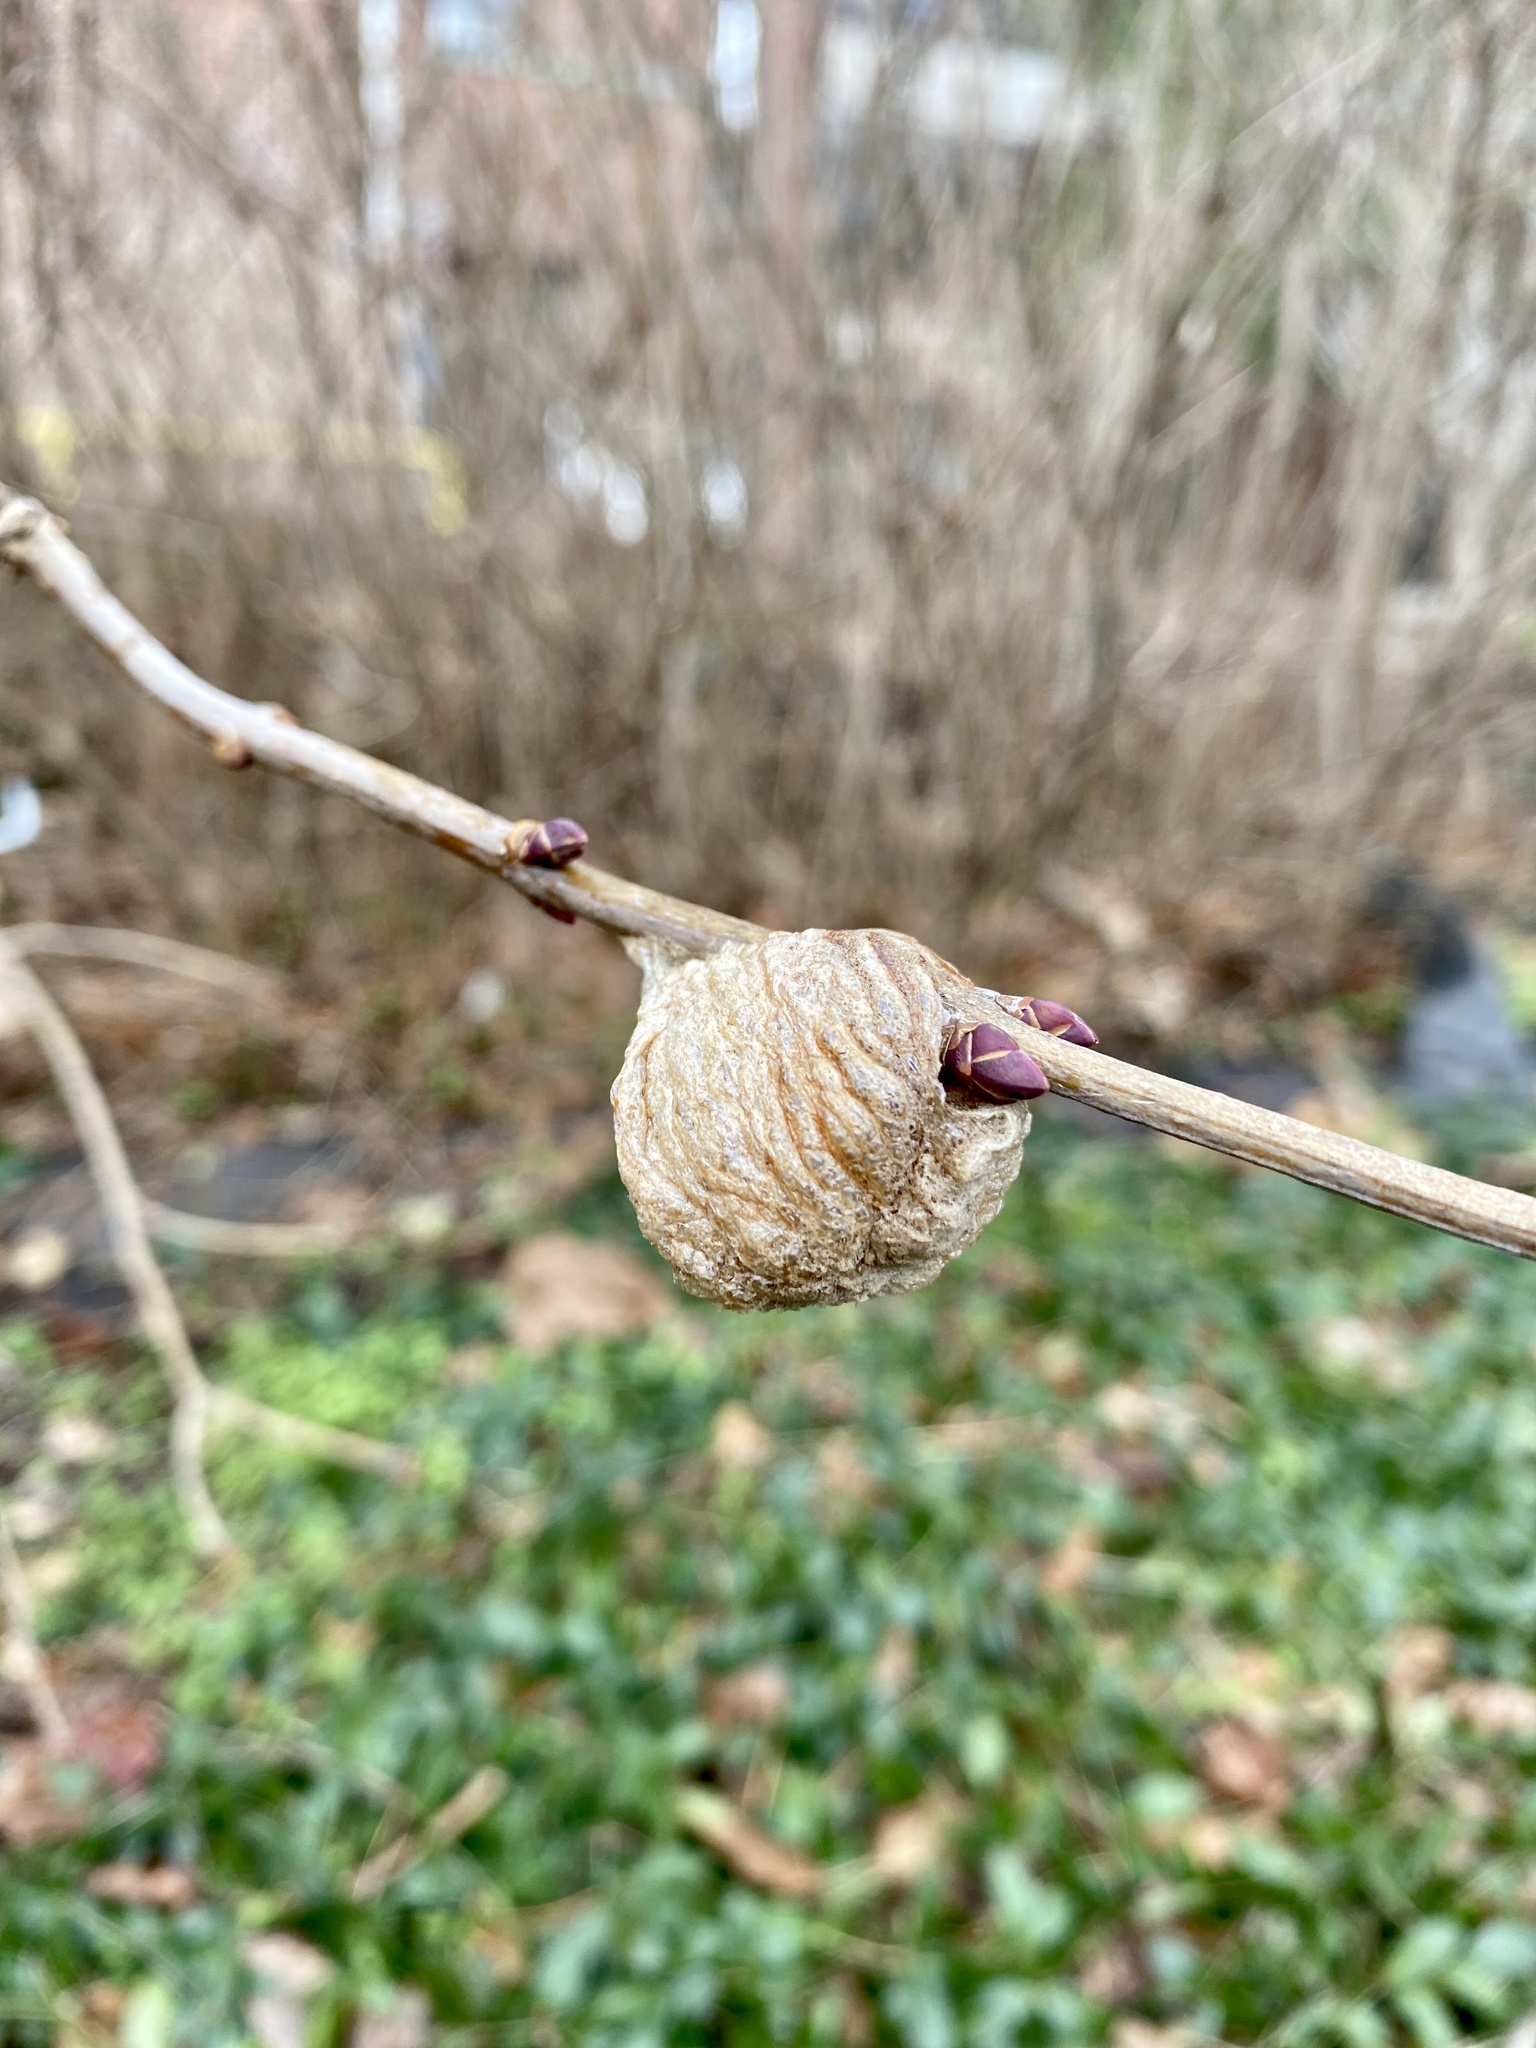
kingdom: Animalia
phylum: Arthropoda
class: Insecta
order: Mantodea
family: Mantidae
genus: Tenodera
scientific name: Tenodera sinensis
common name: Chinese mantis
